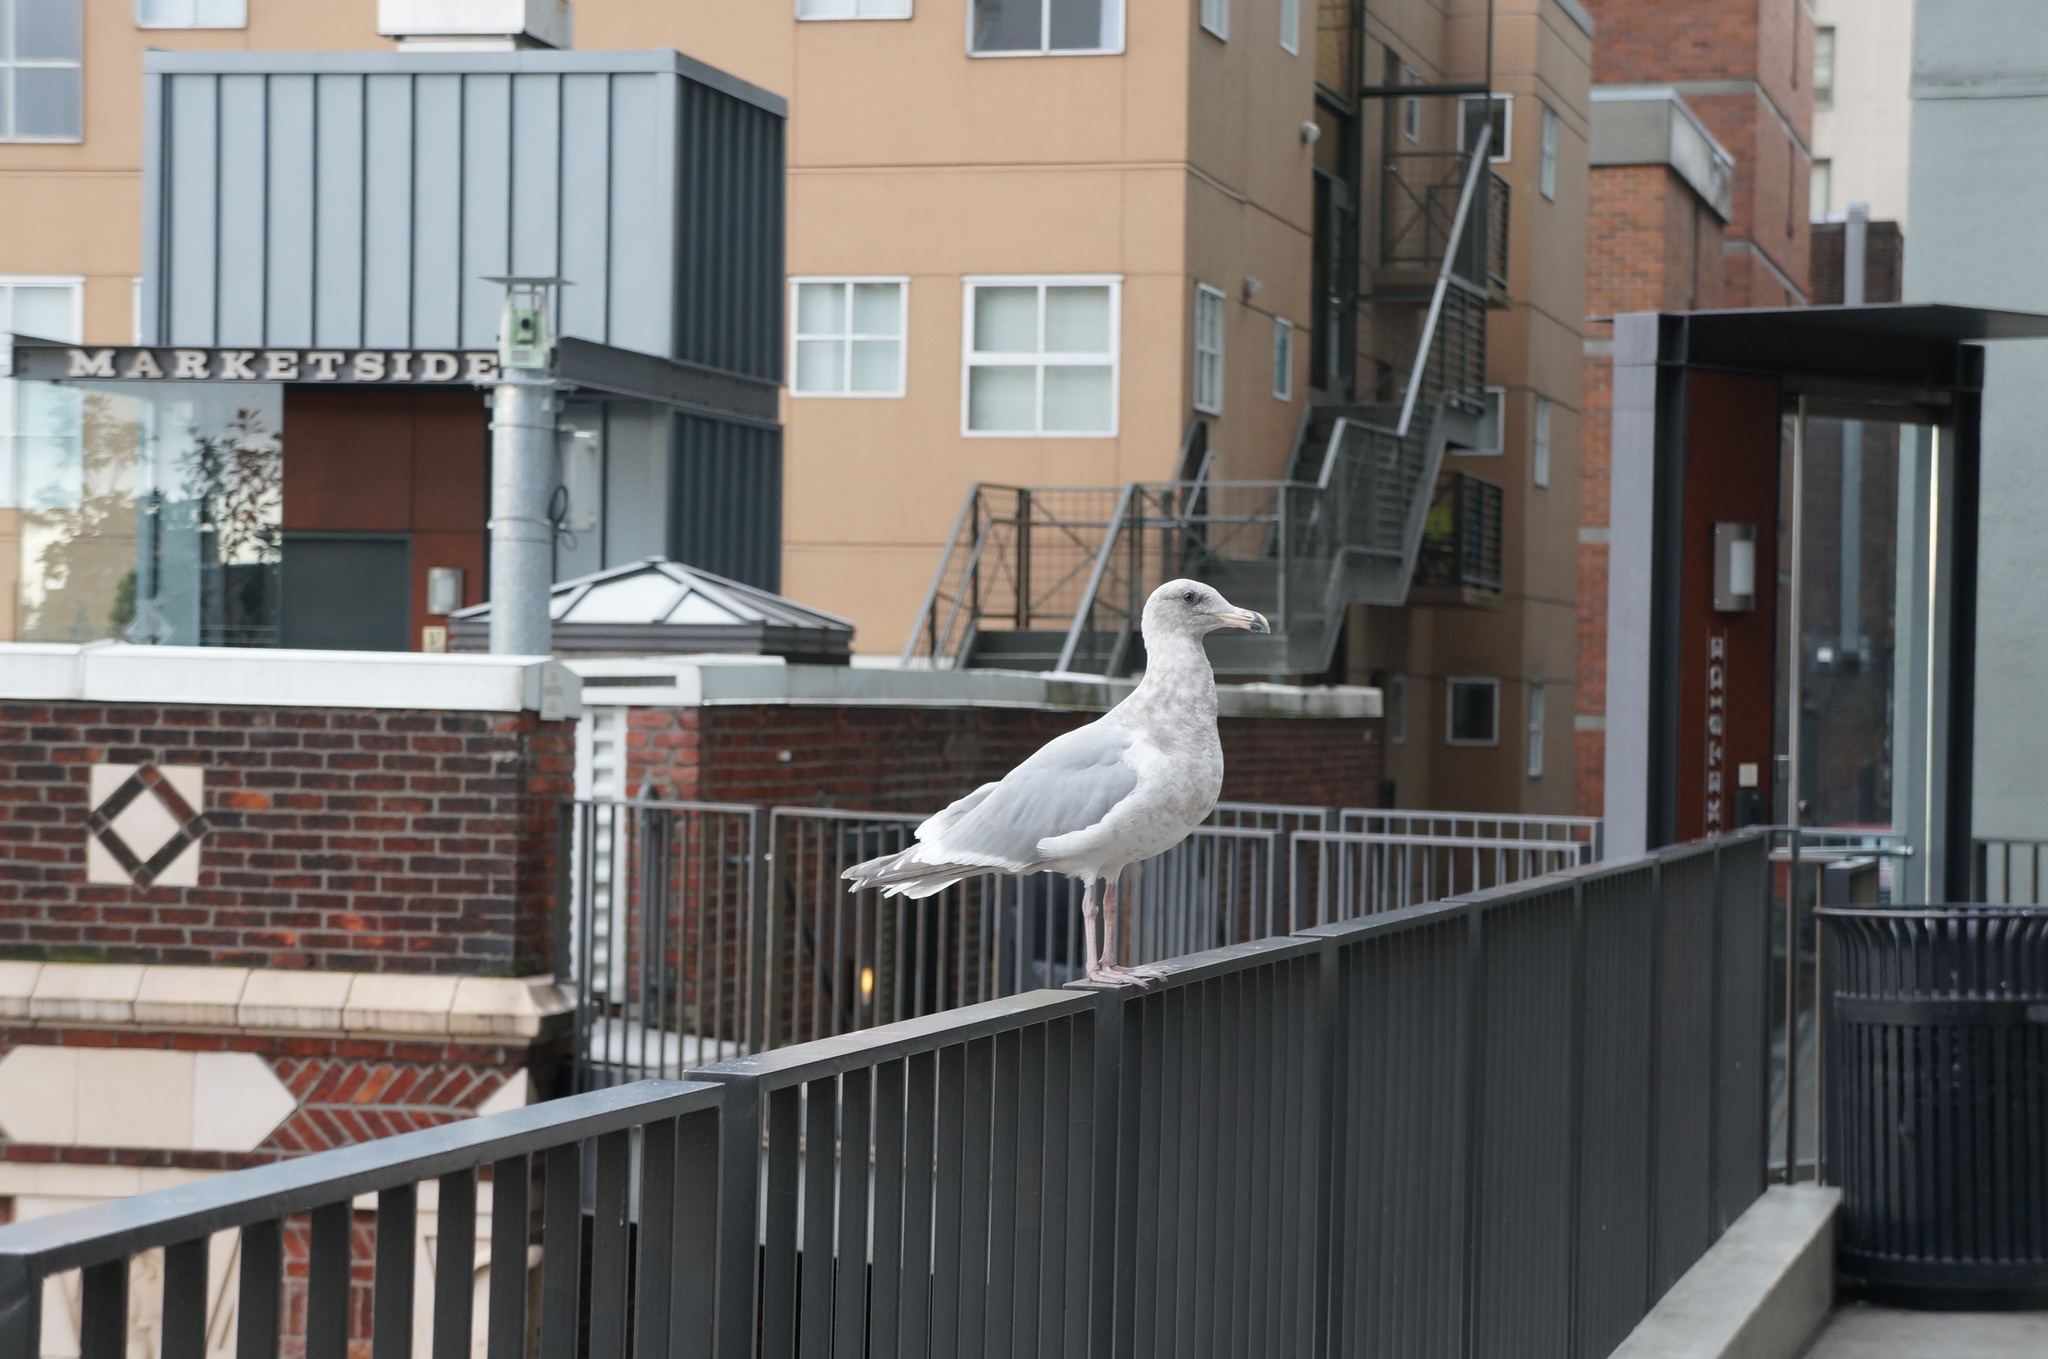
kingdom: Animalia
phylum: Chordata
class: Aves
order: Charadriiformes
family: Laridae
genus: Larus
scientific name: Larus
